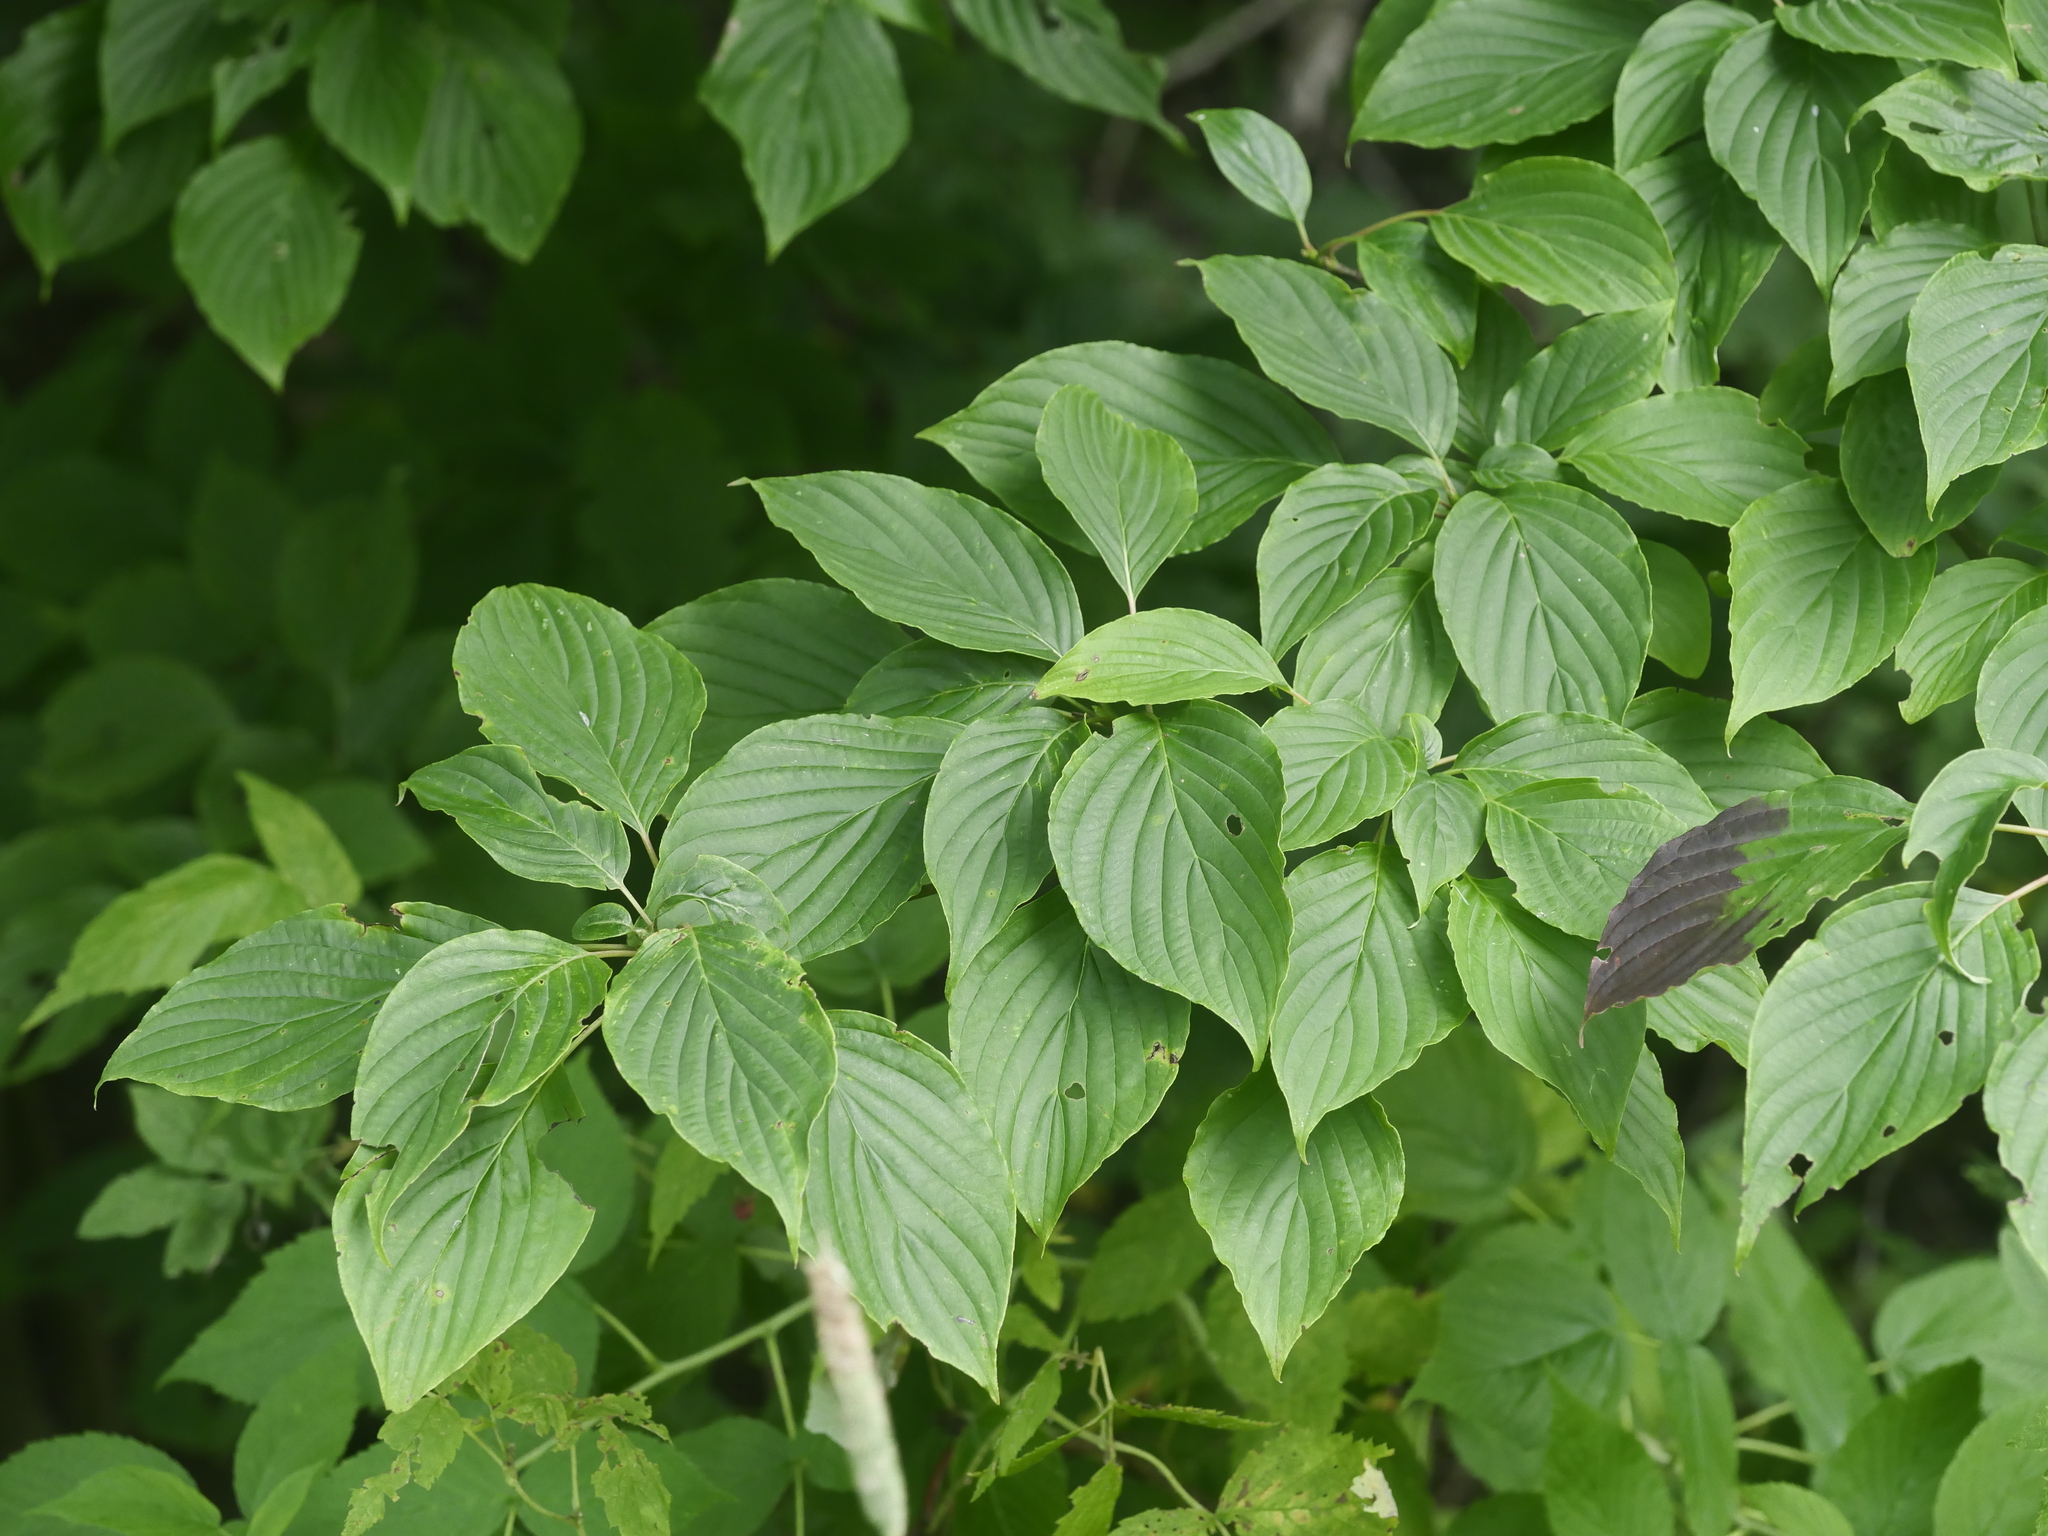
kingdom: Plantae
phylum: Tracheophyta
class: Magnoliopsida
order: Cornales
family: Cornaceae
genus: Cornus
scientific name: Cornus alternifolia
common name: Pagoda dogwood
